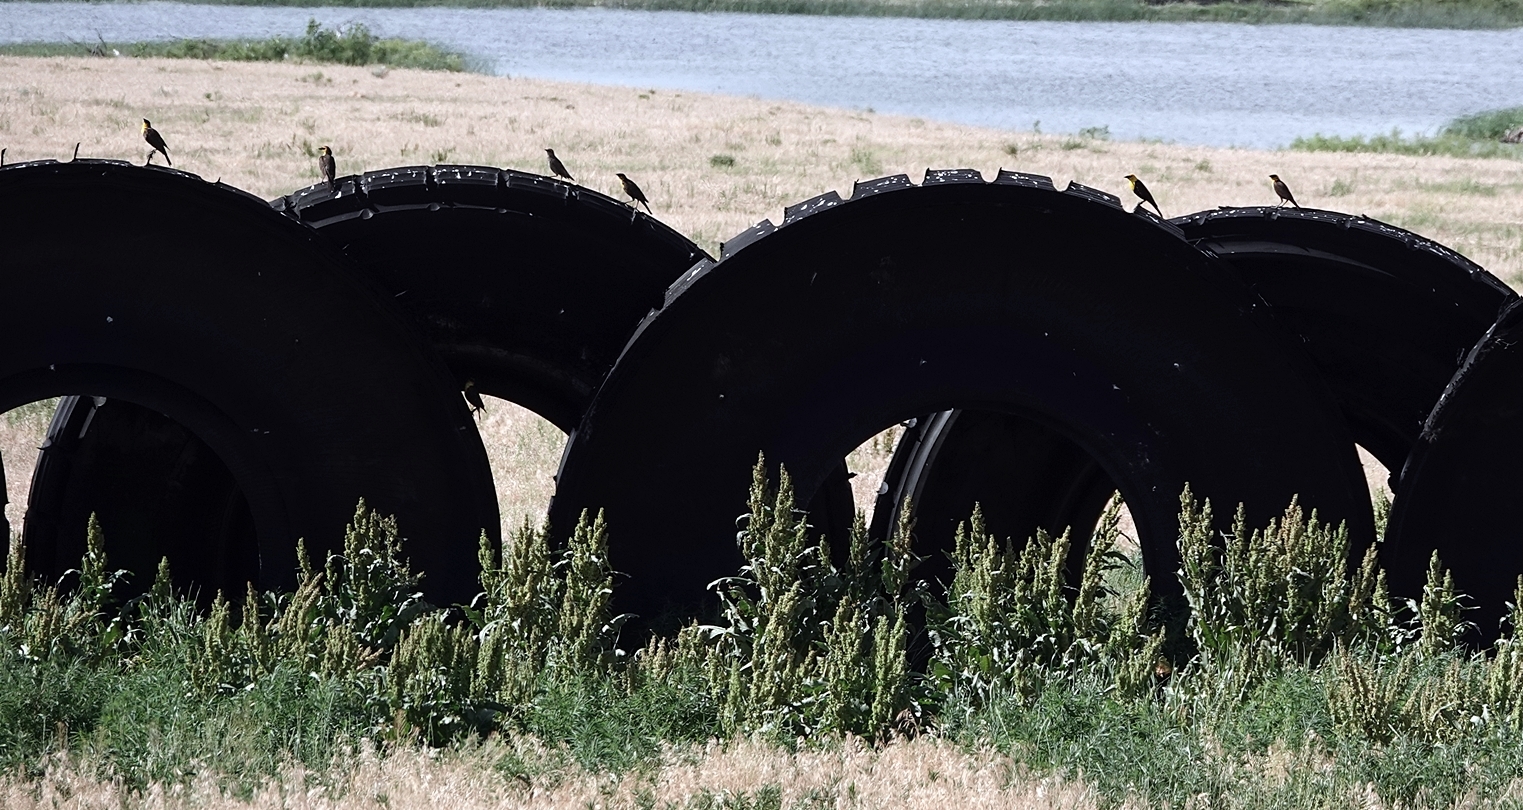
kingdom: Animalia
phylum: Chordata
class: Aves
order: Passeriformes
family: Icteridae
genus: Xanthocephalus
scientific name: Xanthocephalus xanthocephalus
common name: Yellow-headed blackbird
